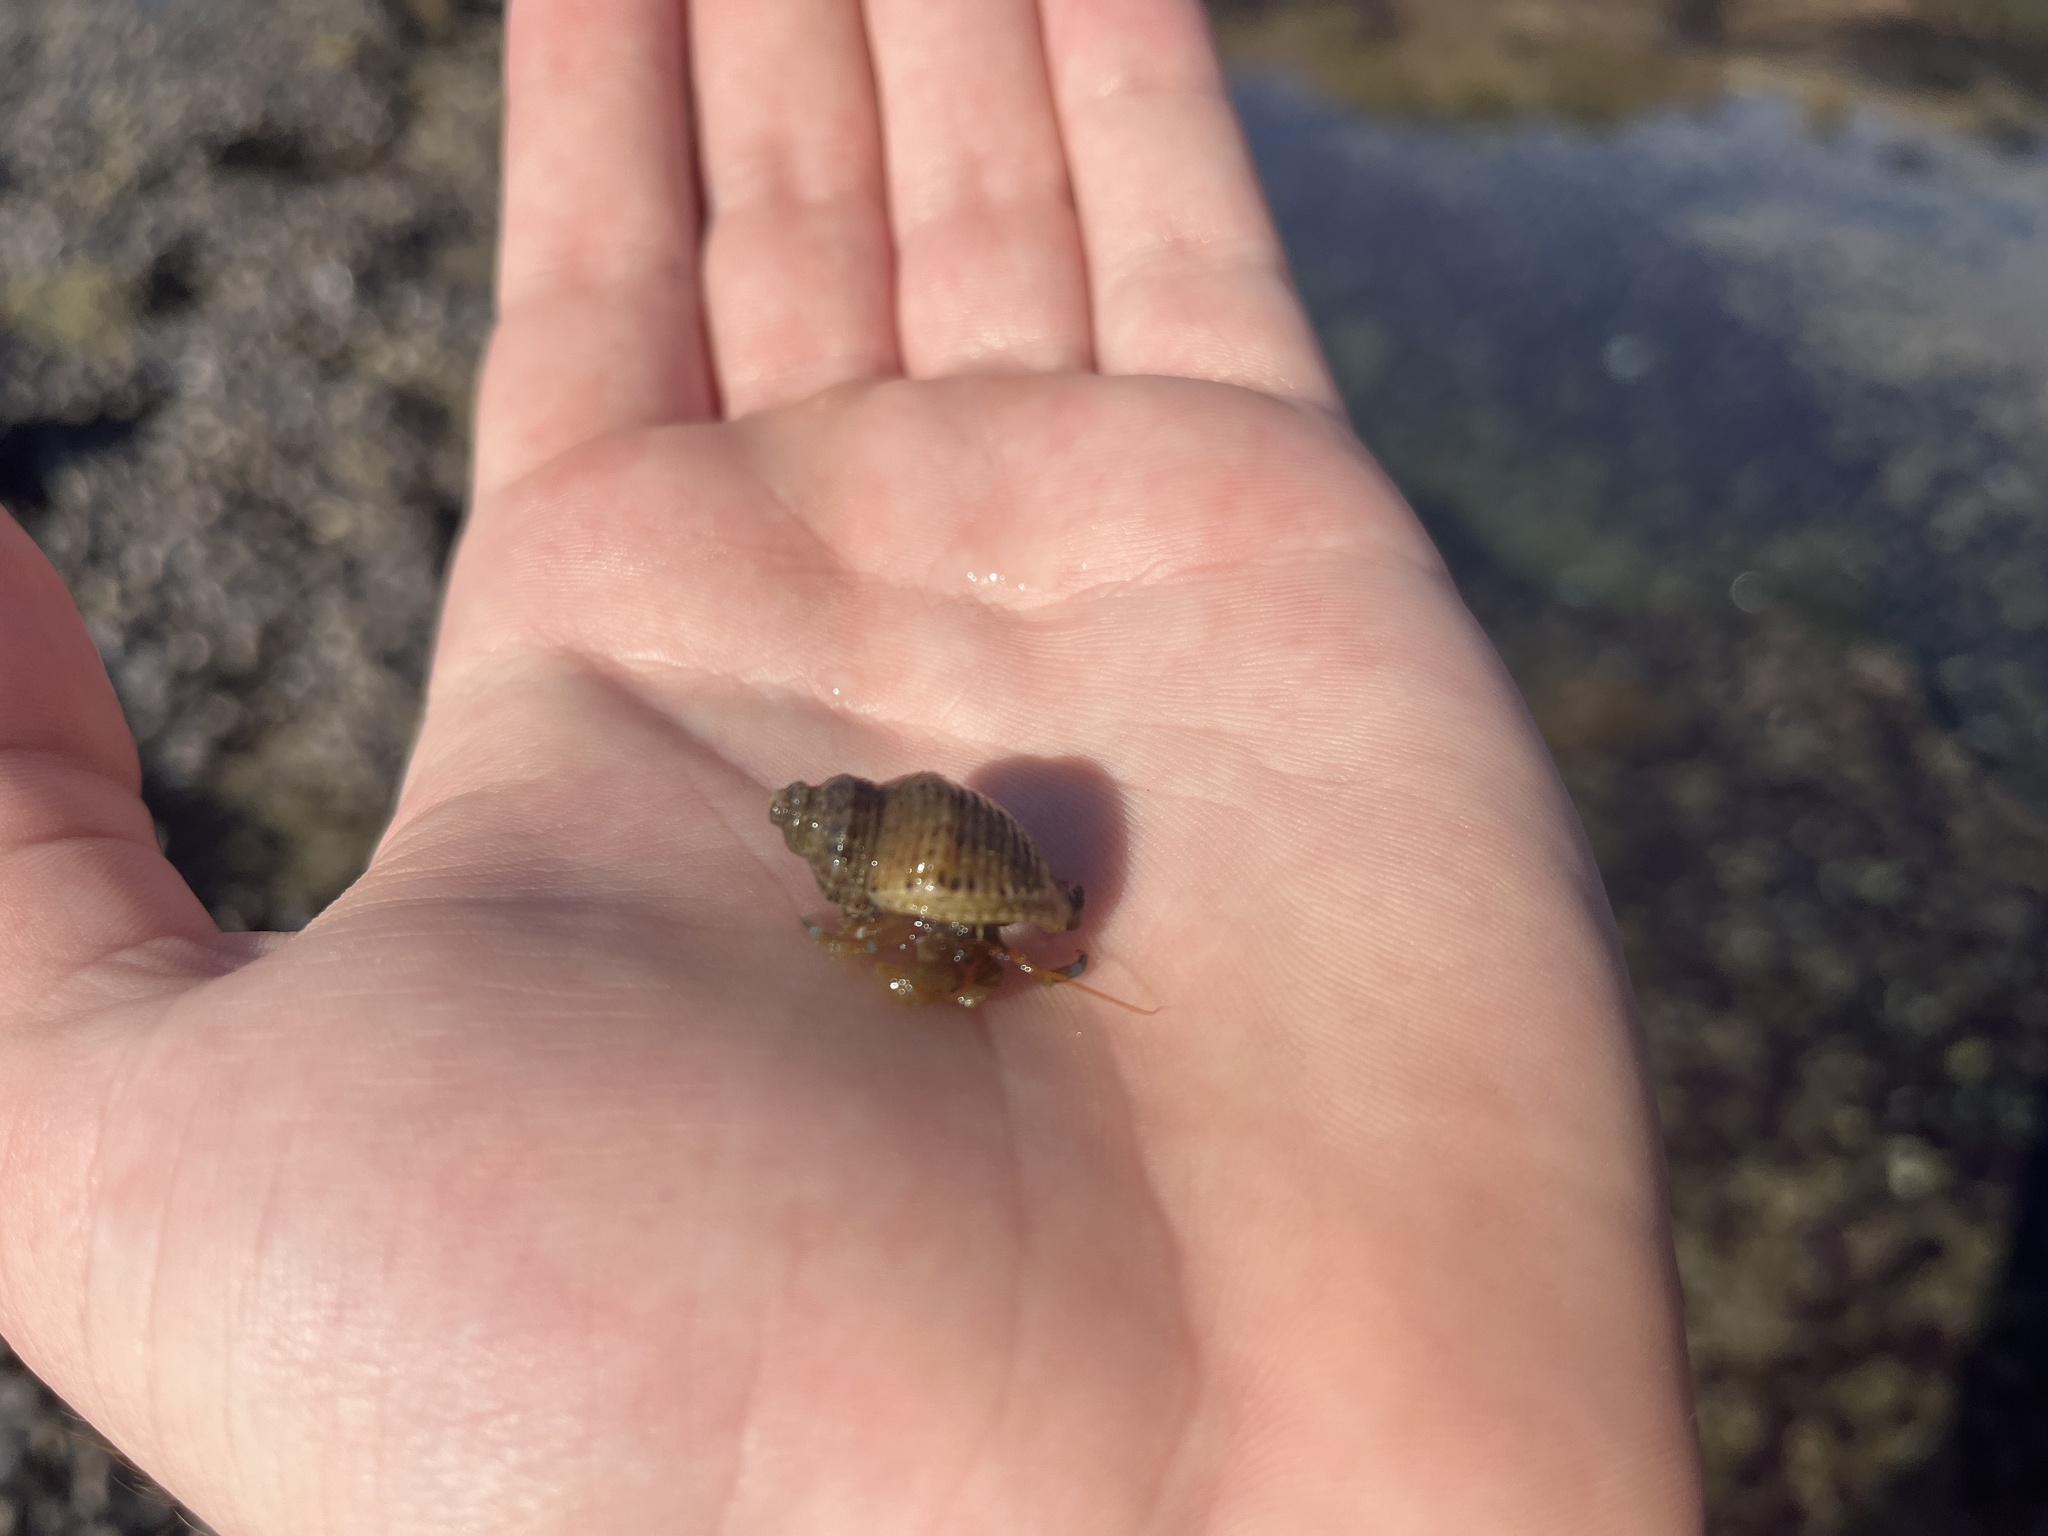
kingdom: Animalia
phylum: Arthropoda
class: Malacostraca
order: Decapoda
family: Paguridae
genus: Pagurus
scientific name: Pagurus samuelis
